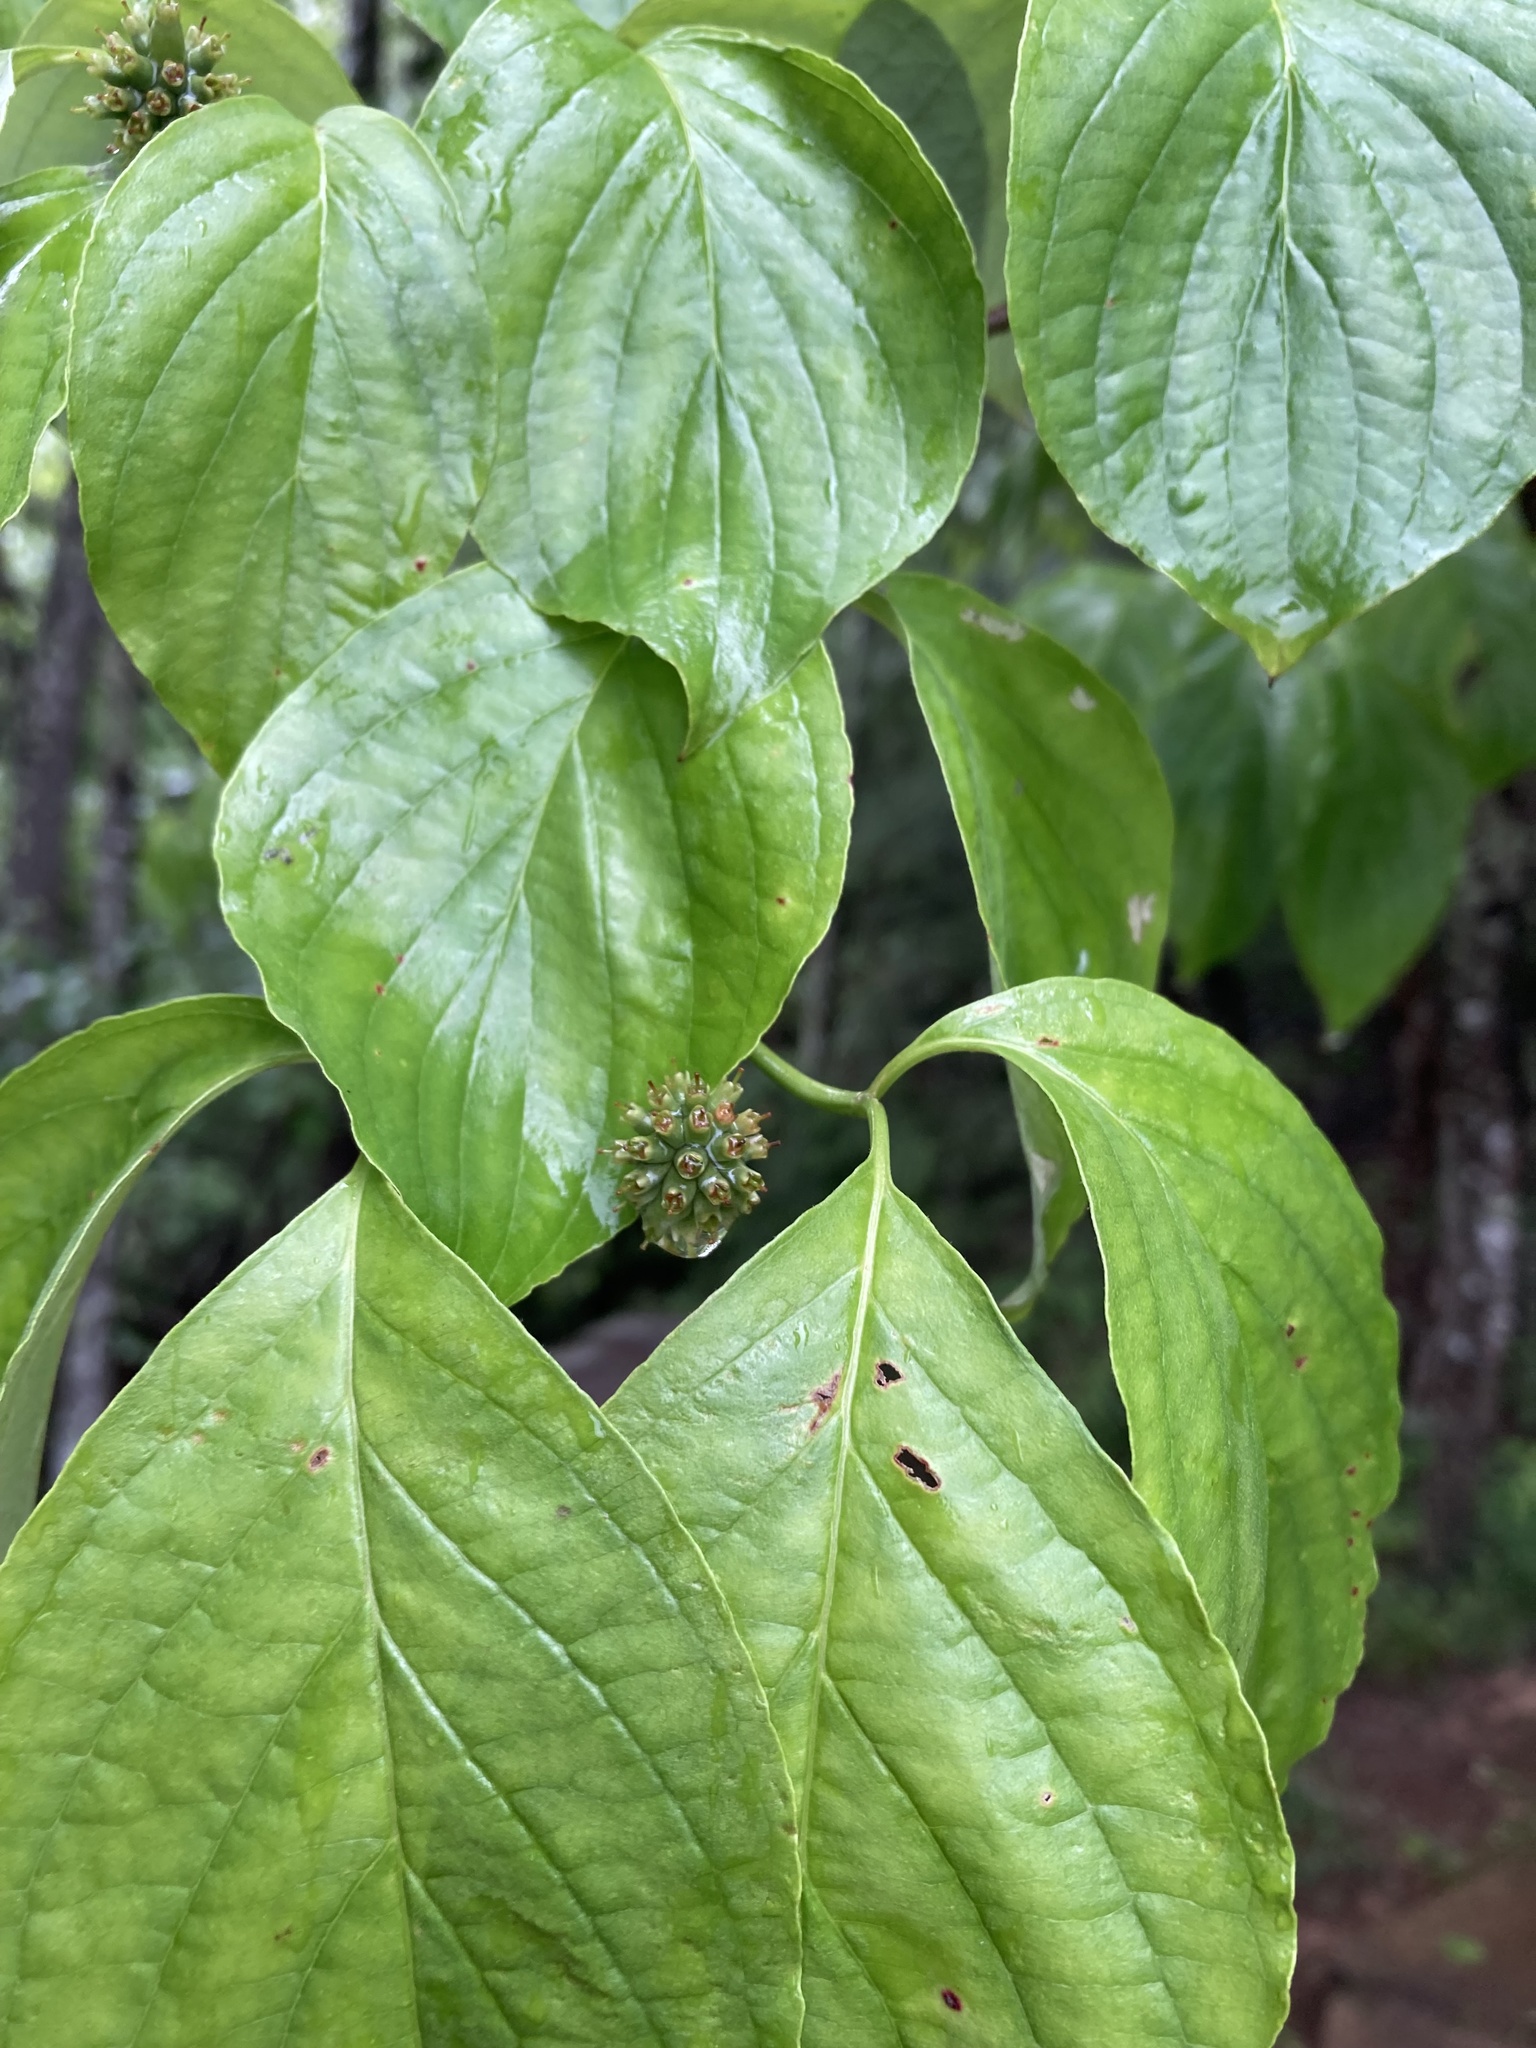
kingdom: Plantae
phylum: Tracheophyta
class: Magnoliopsida
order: Cornales
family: Cornaceae
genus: Cornus
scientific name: Cornus florida
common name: Flowering dogwood
